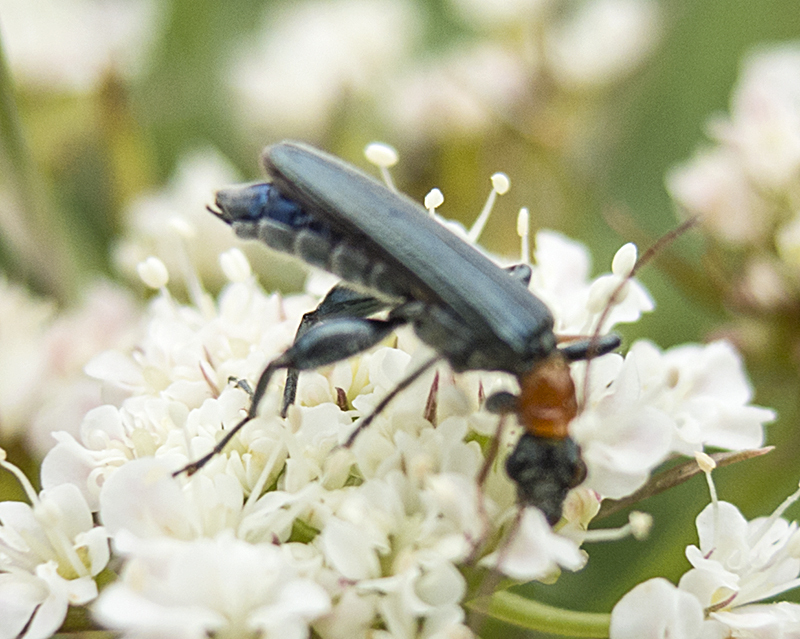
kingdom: Animalia
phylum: Arthropoda
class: Insecta
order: Coleoptera
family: Oedemeridae
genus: Oedemera
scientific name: Oedemera croceicollis
